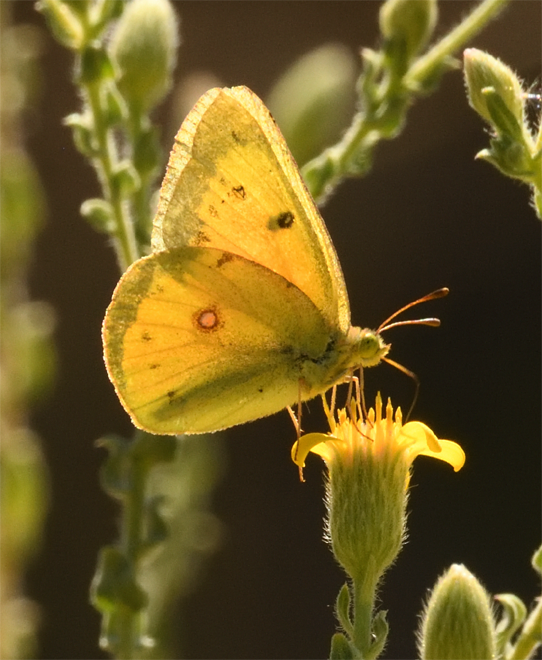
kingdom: Animalia
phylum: Arthropoda
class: Insecta
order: Lepidoptera
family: Pieridae
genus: Colias
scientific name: Colias eurytheme
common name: Alfalfa butterfly
